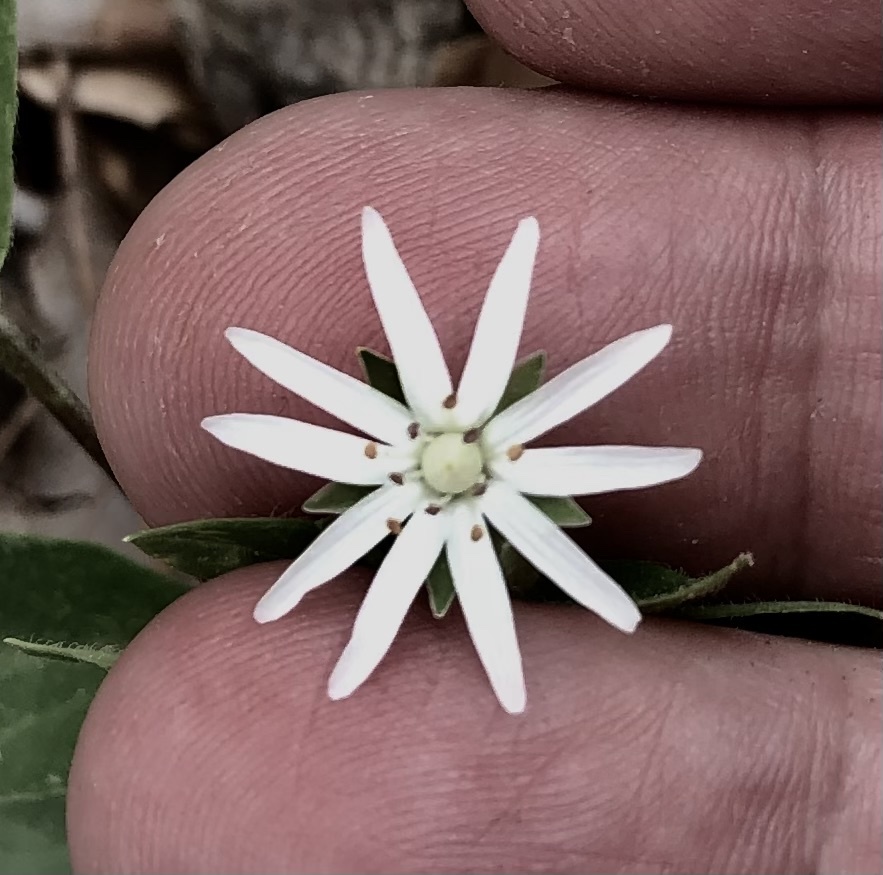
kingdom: Plantae
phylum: Tracheophyta
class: Magnoliopsida
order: Caryophyllales
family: Caryophyllaceae
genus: Stellaria
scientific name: Stellaria pubera
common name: Star chickweed
